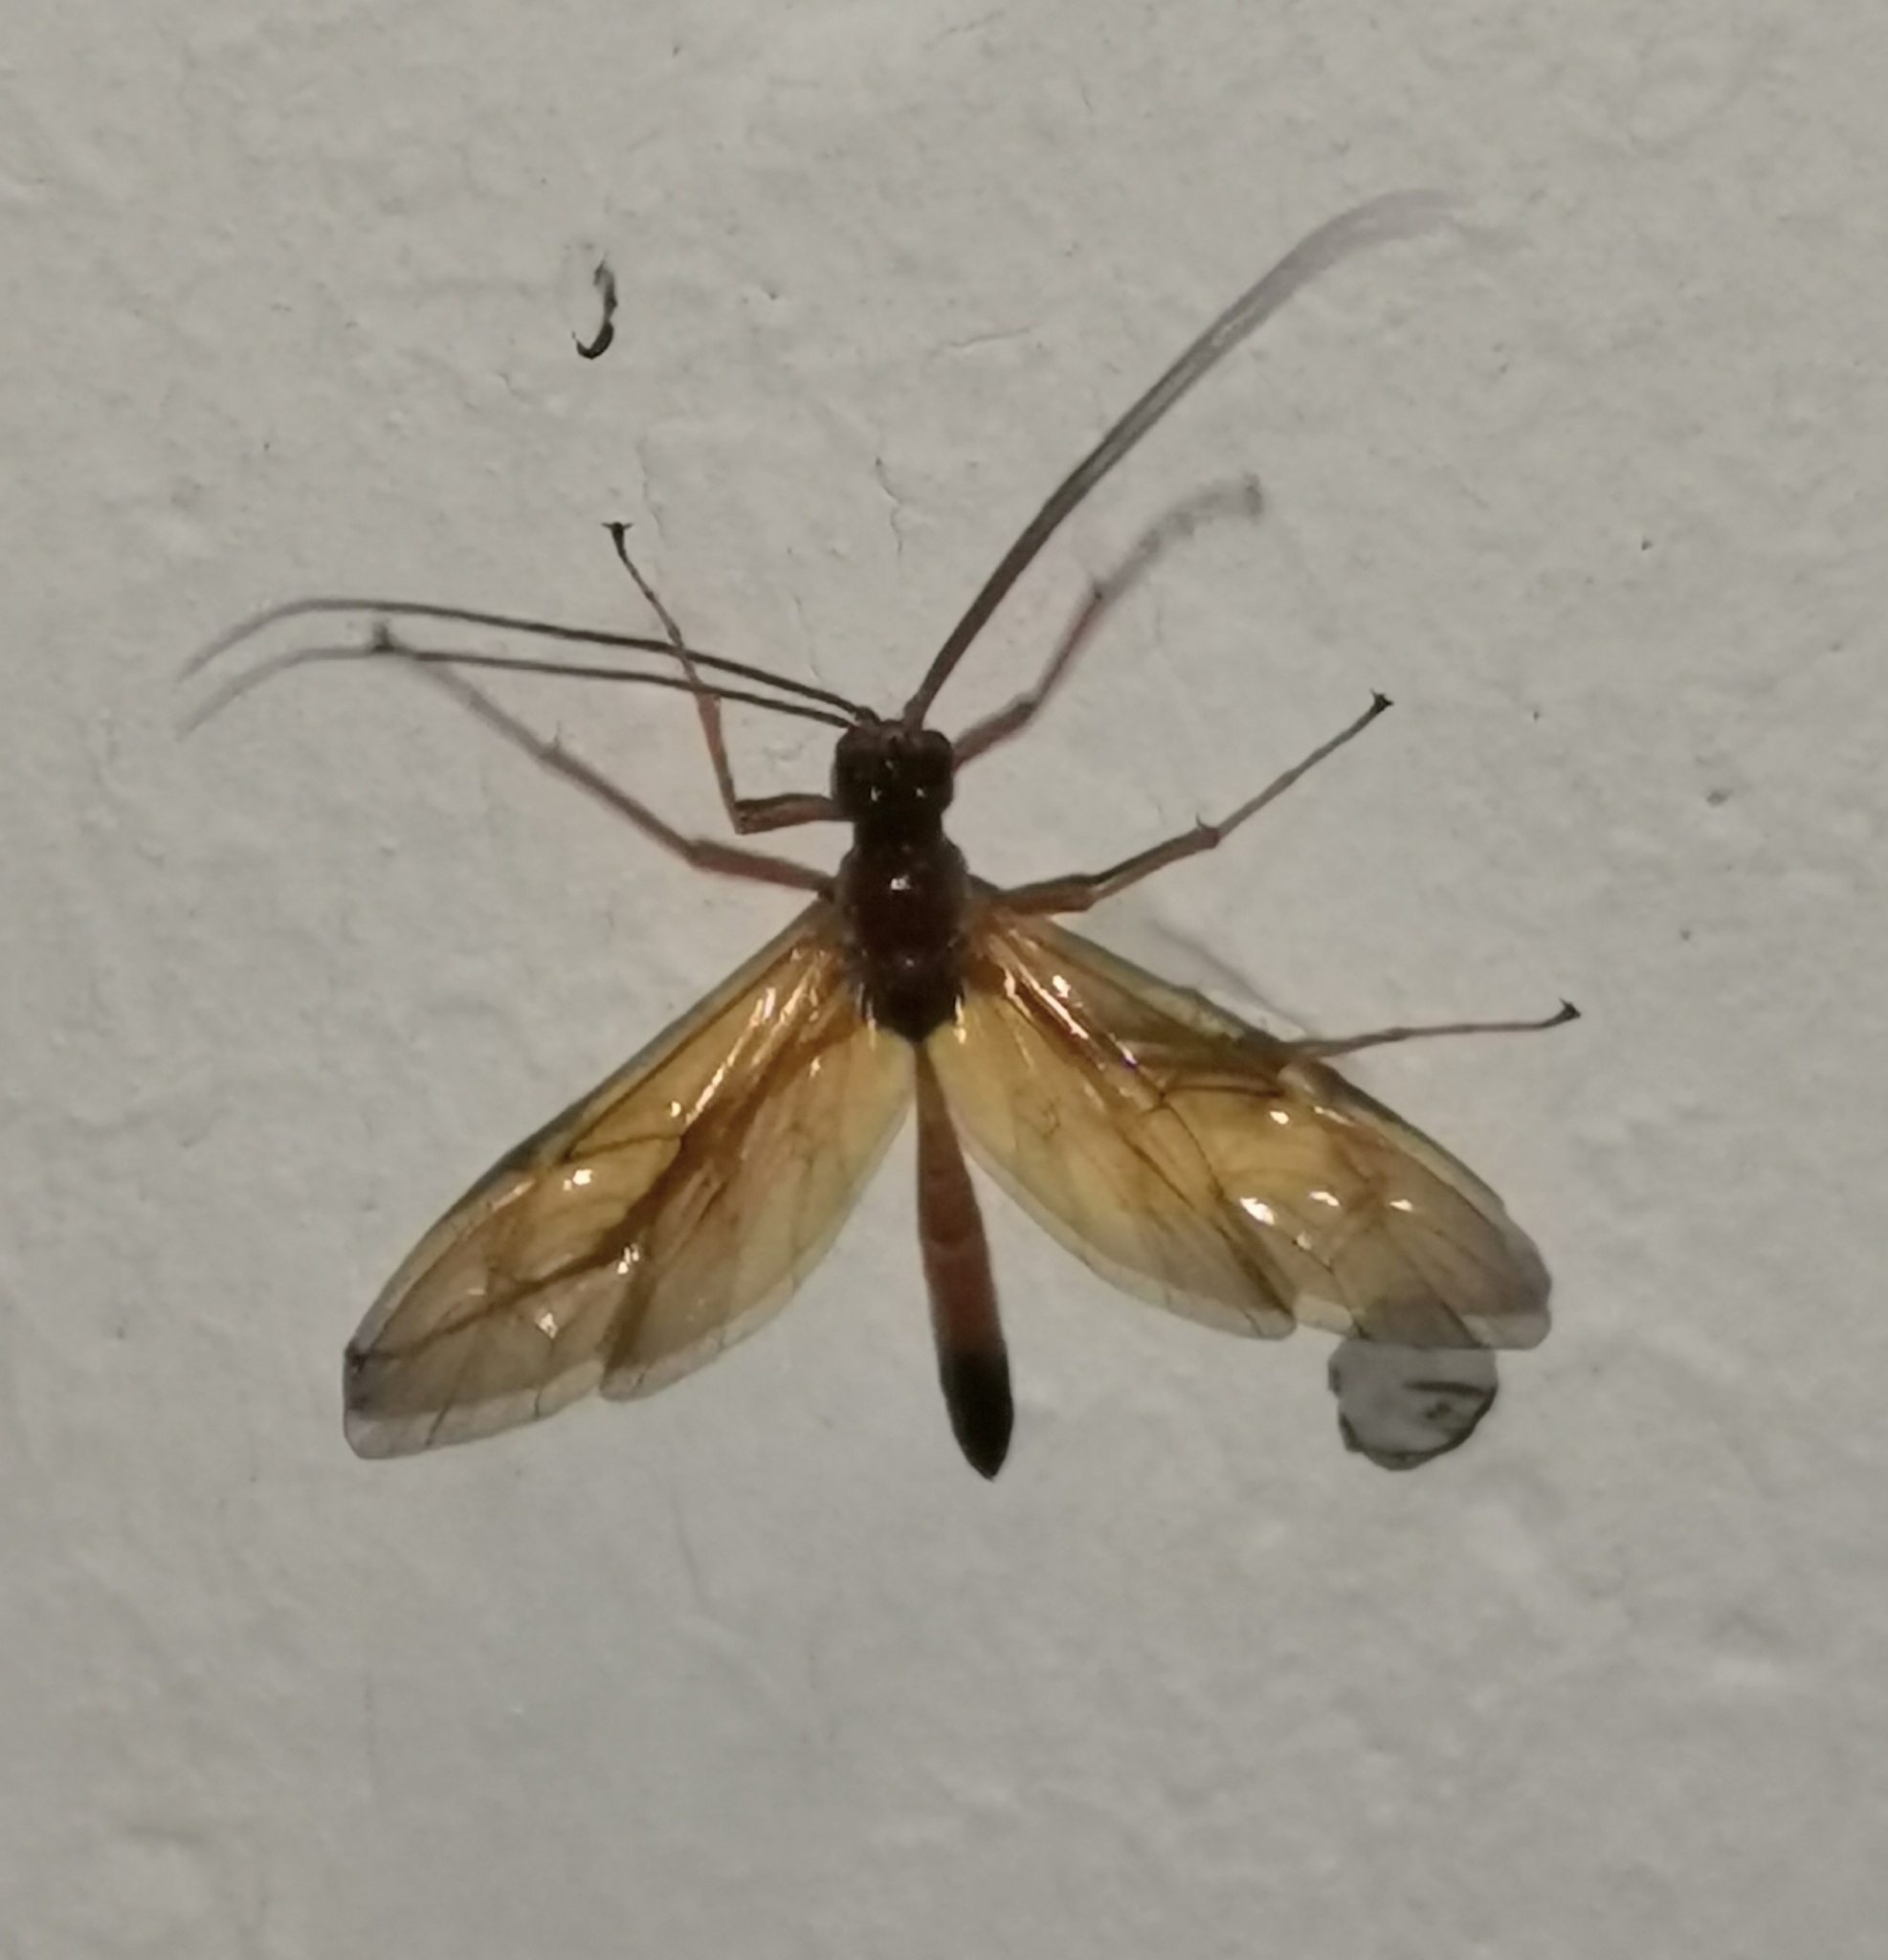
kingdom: Animalia
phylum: Arthropoda
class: Insecta
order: Hymenoptera
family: Ichneumonidae
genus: Opheltes
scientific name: Opheltes glaucopterus
